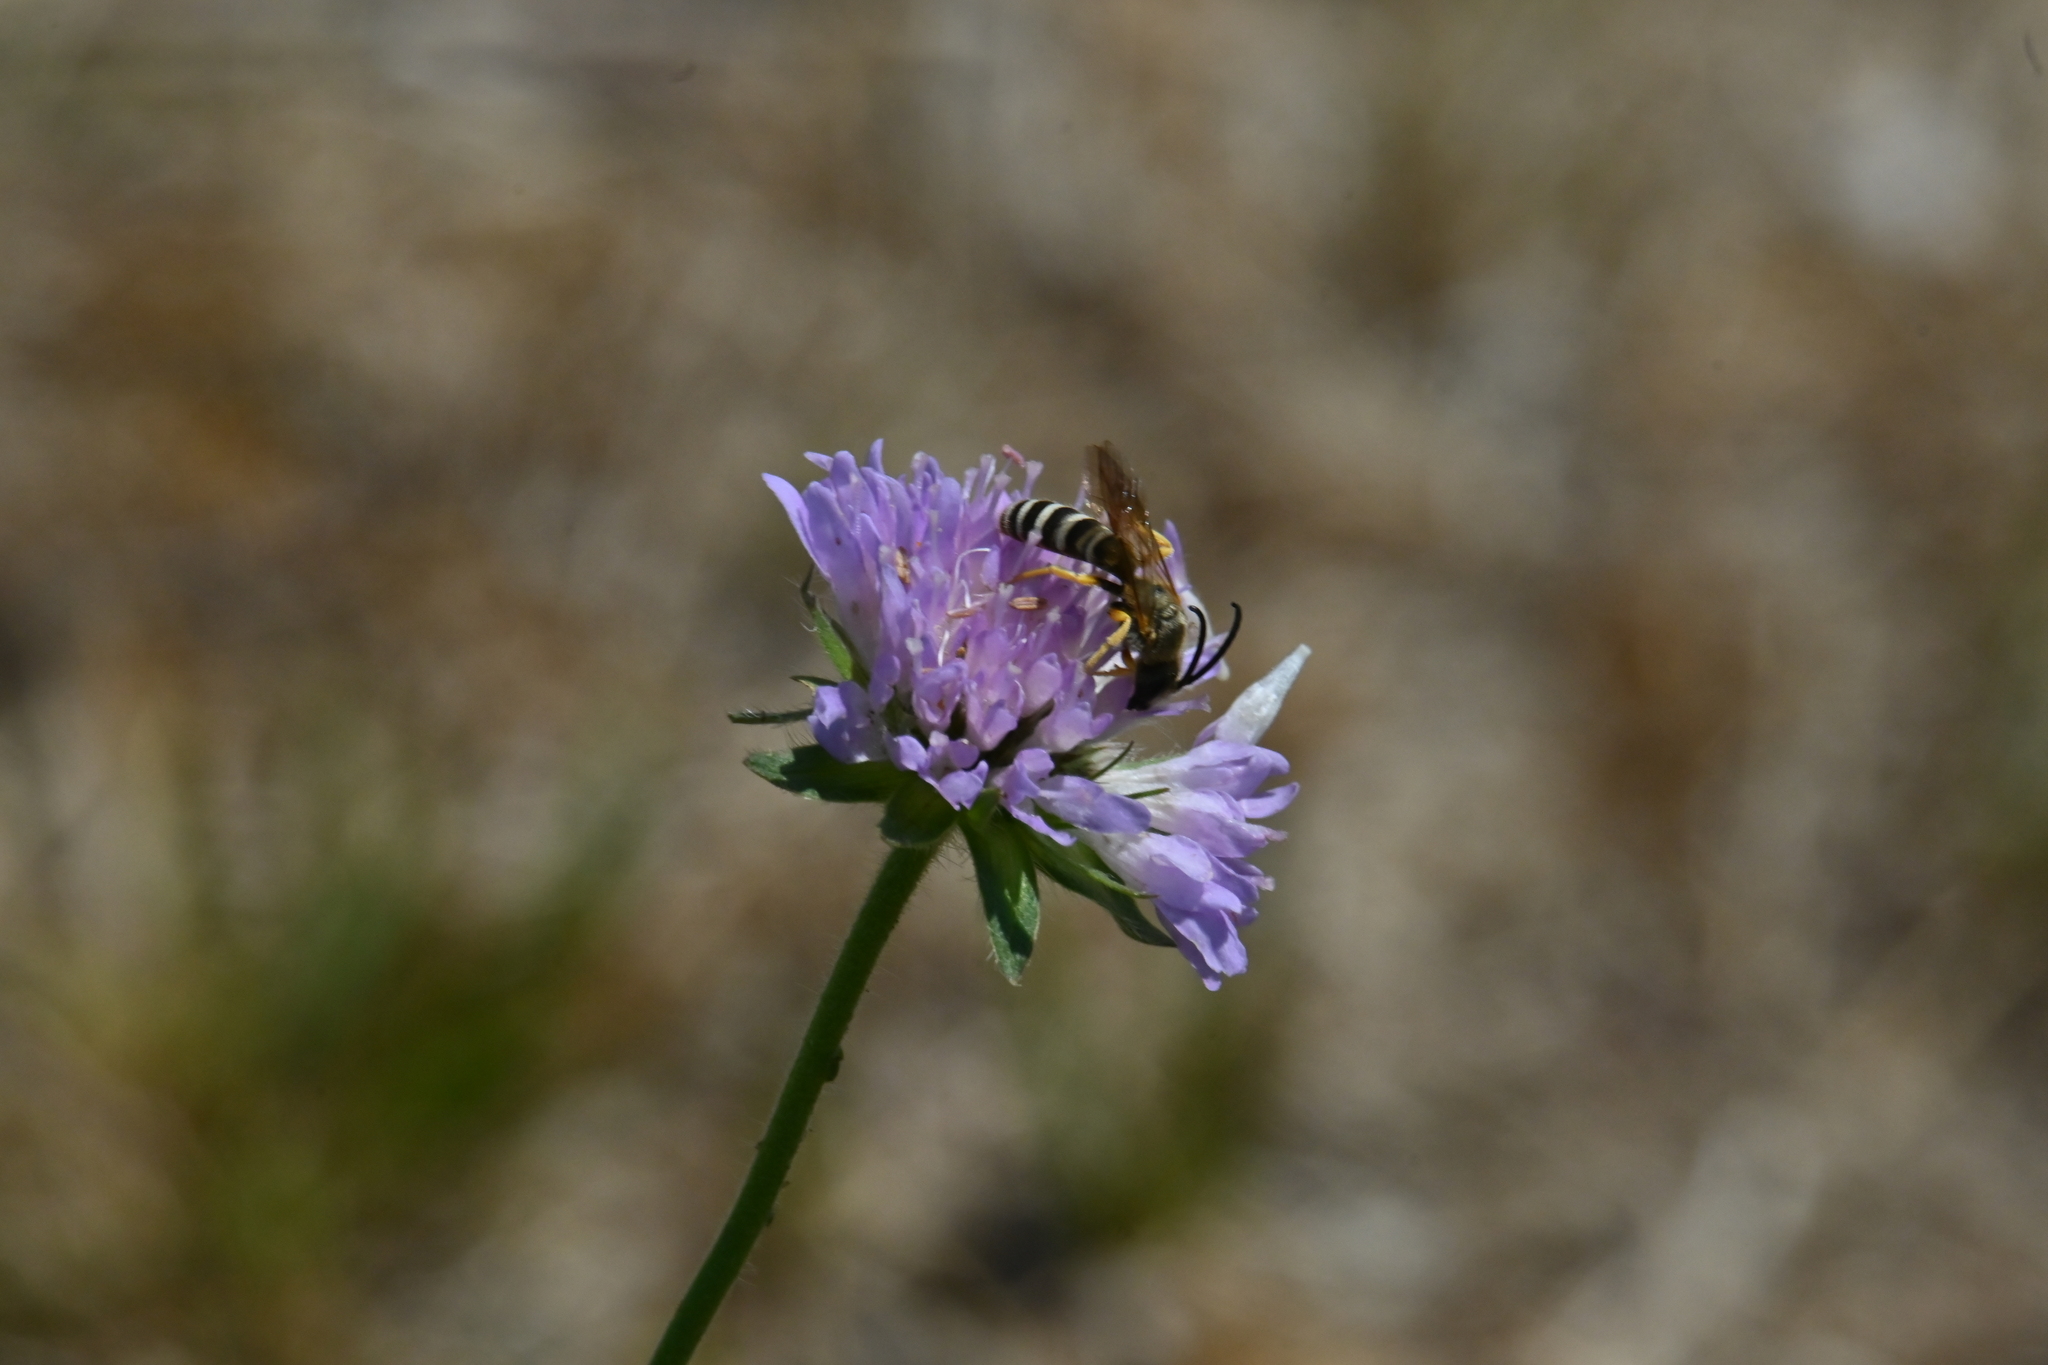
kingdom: Animalia
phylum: Arthropoda
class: Insecta
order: Hymenoptera
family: Halictidae
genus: Halictus
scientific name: Halictus scabiosae
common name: Great banded furrow bee
